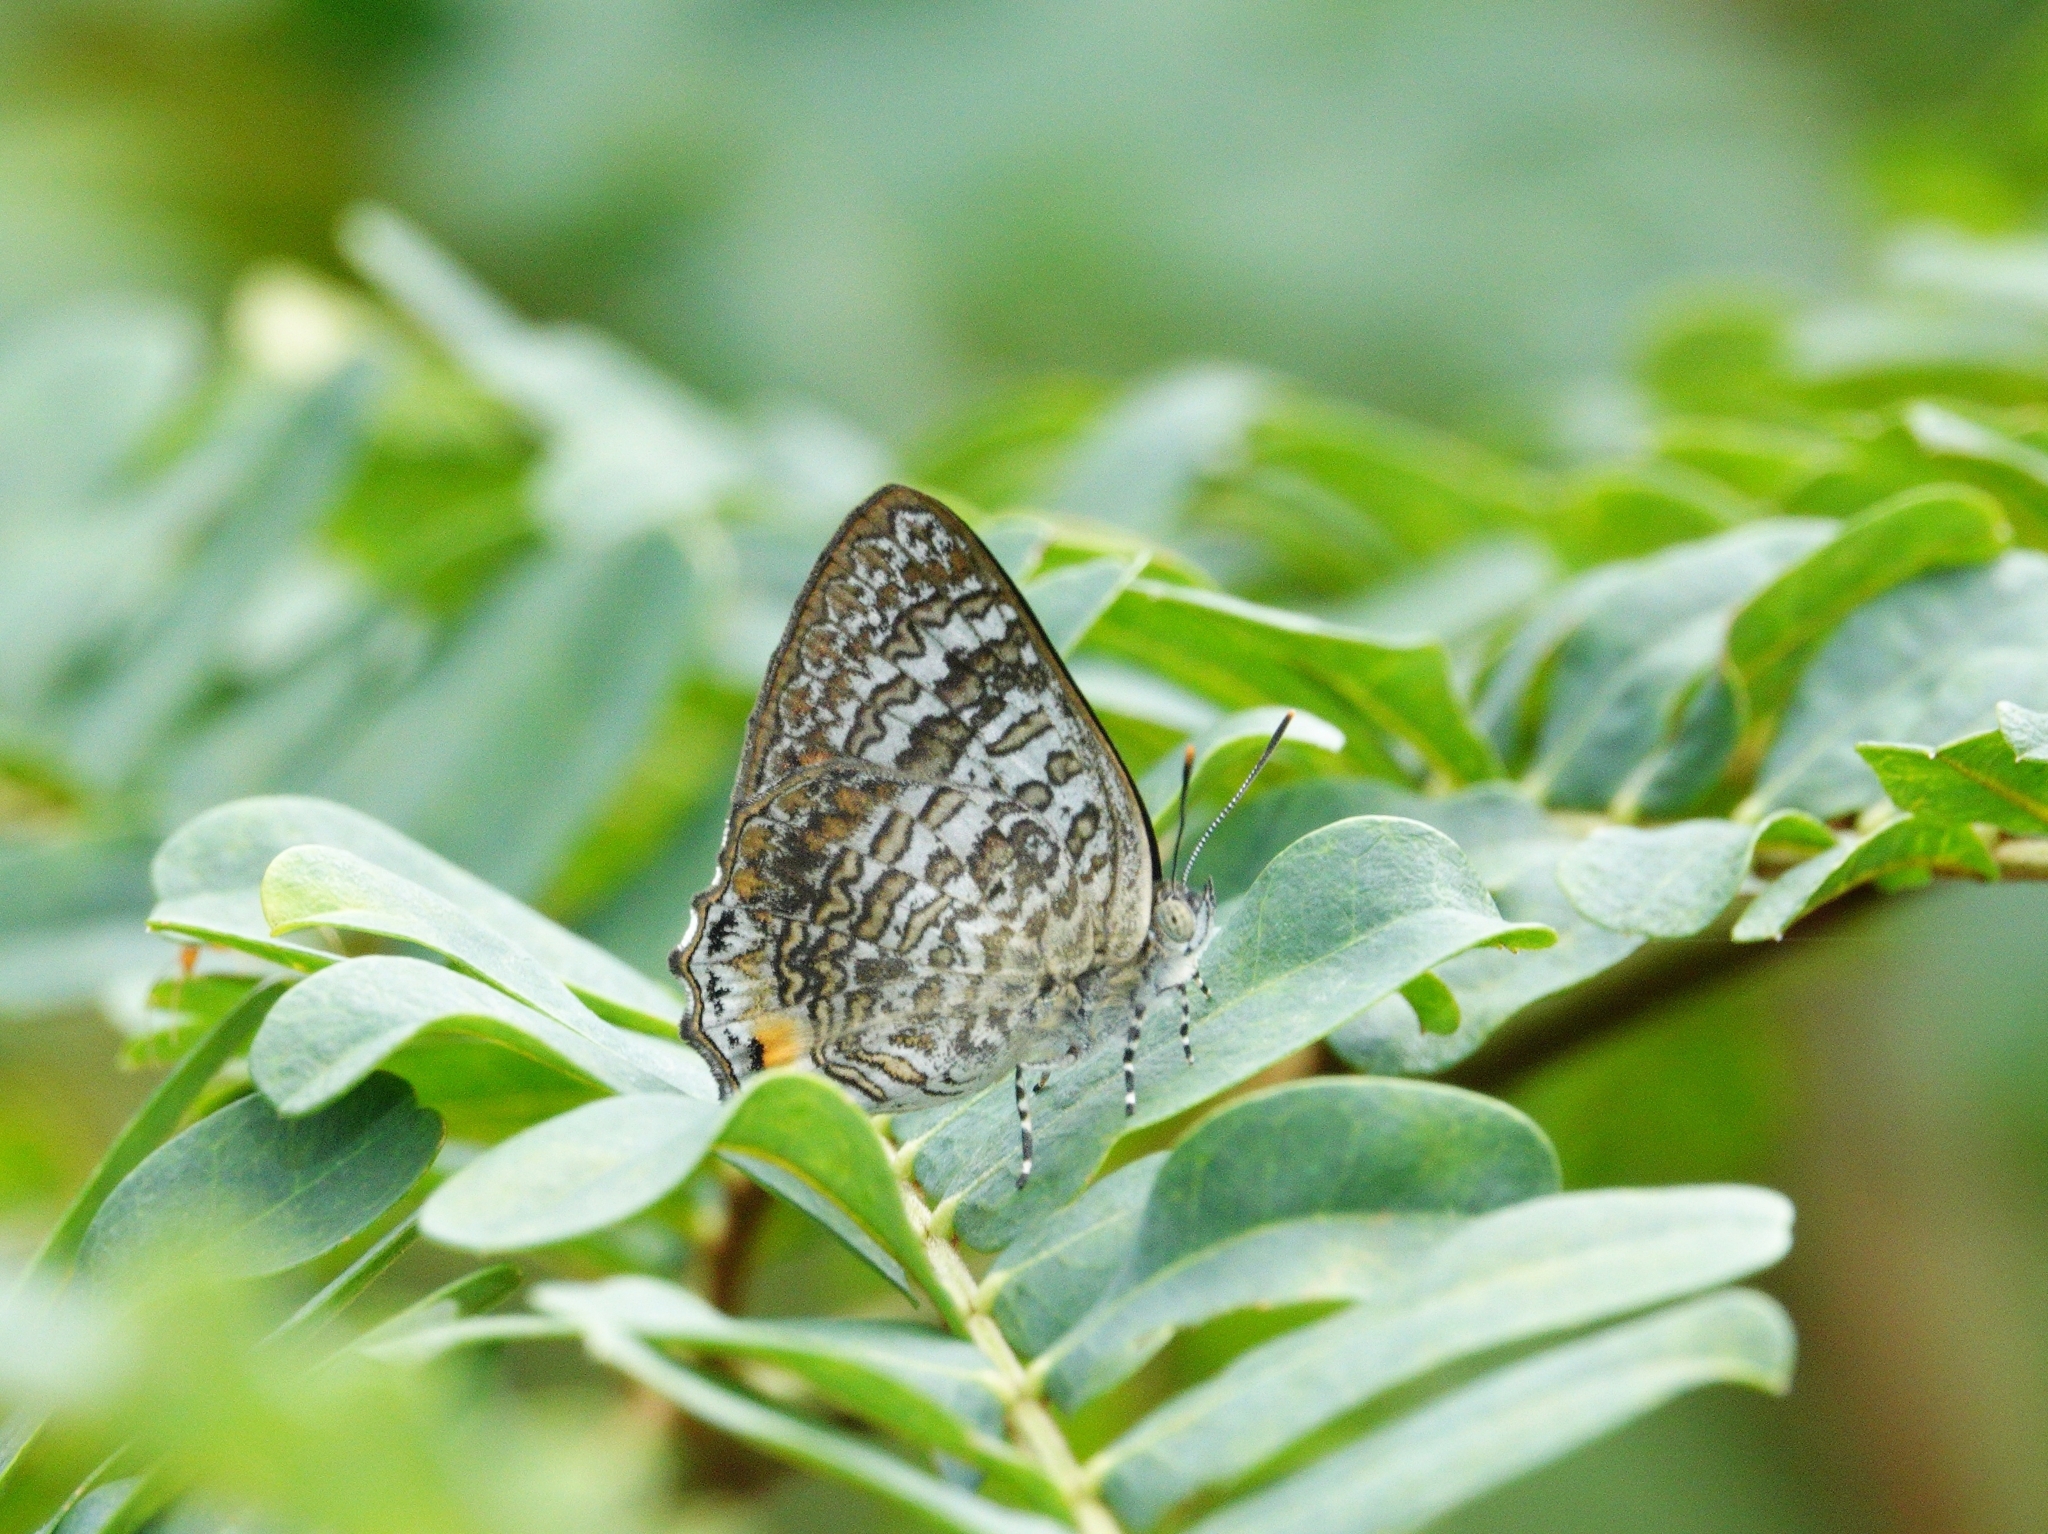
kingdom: Animalia
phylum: Arthropoda
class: Insecta
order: Lepidoptera
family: Lycaenidae
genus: Poritia
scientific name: Poritia erycinoides
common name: Blue gem
